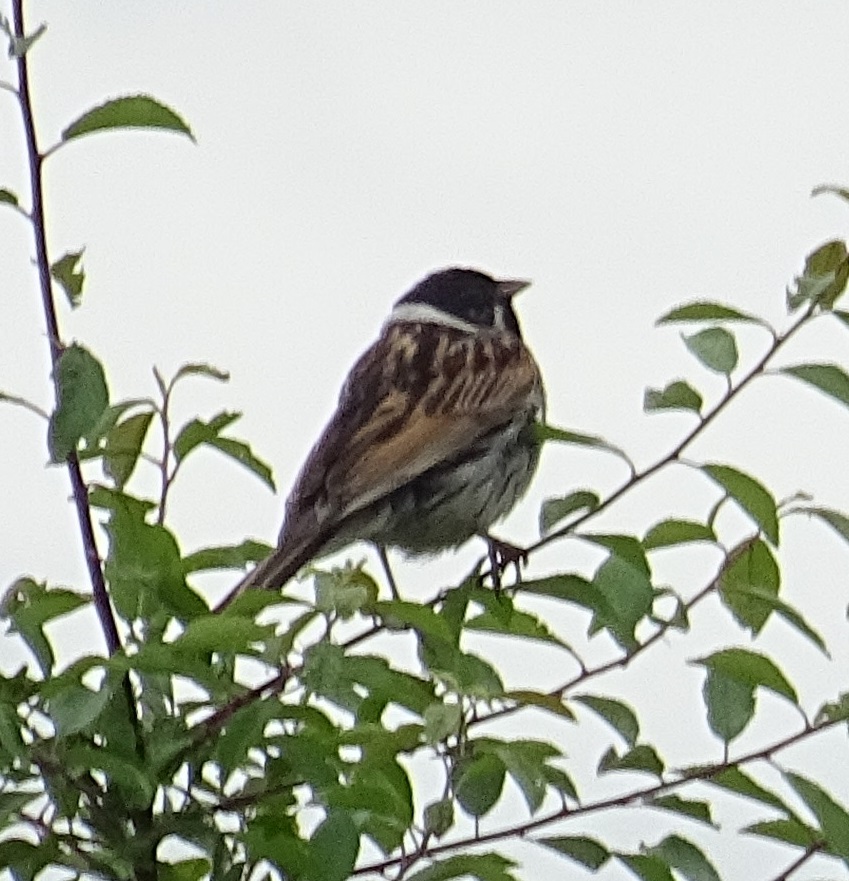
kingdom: Animalia
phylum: Chordata
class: Aves
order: Passeriformes
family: Emberizidae
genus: Emberiza
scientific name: Emberiza schoeniclus
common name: Reed bunting
